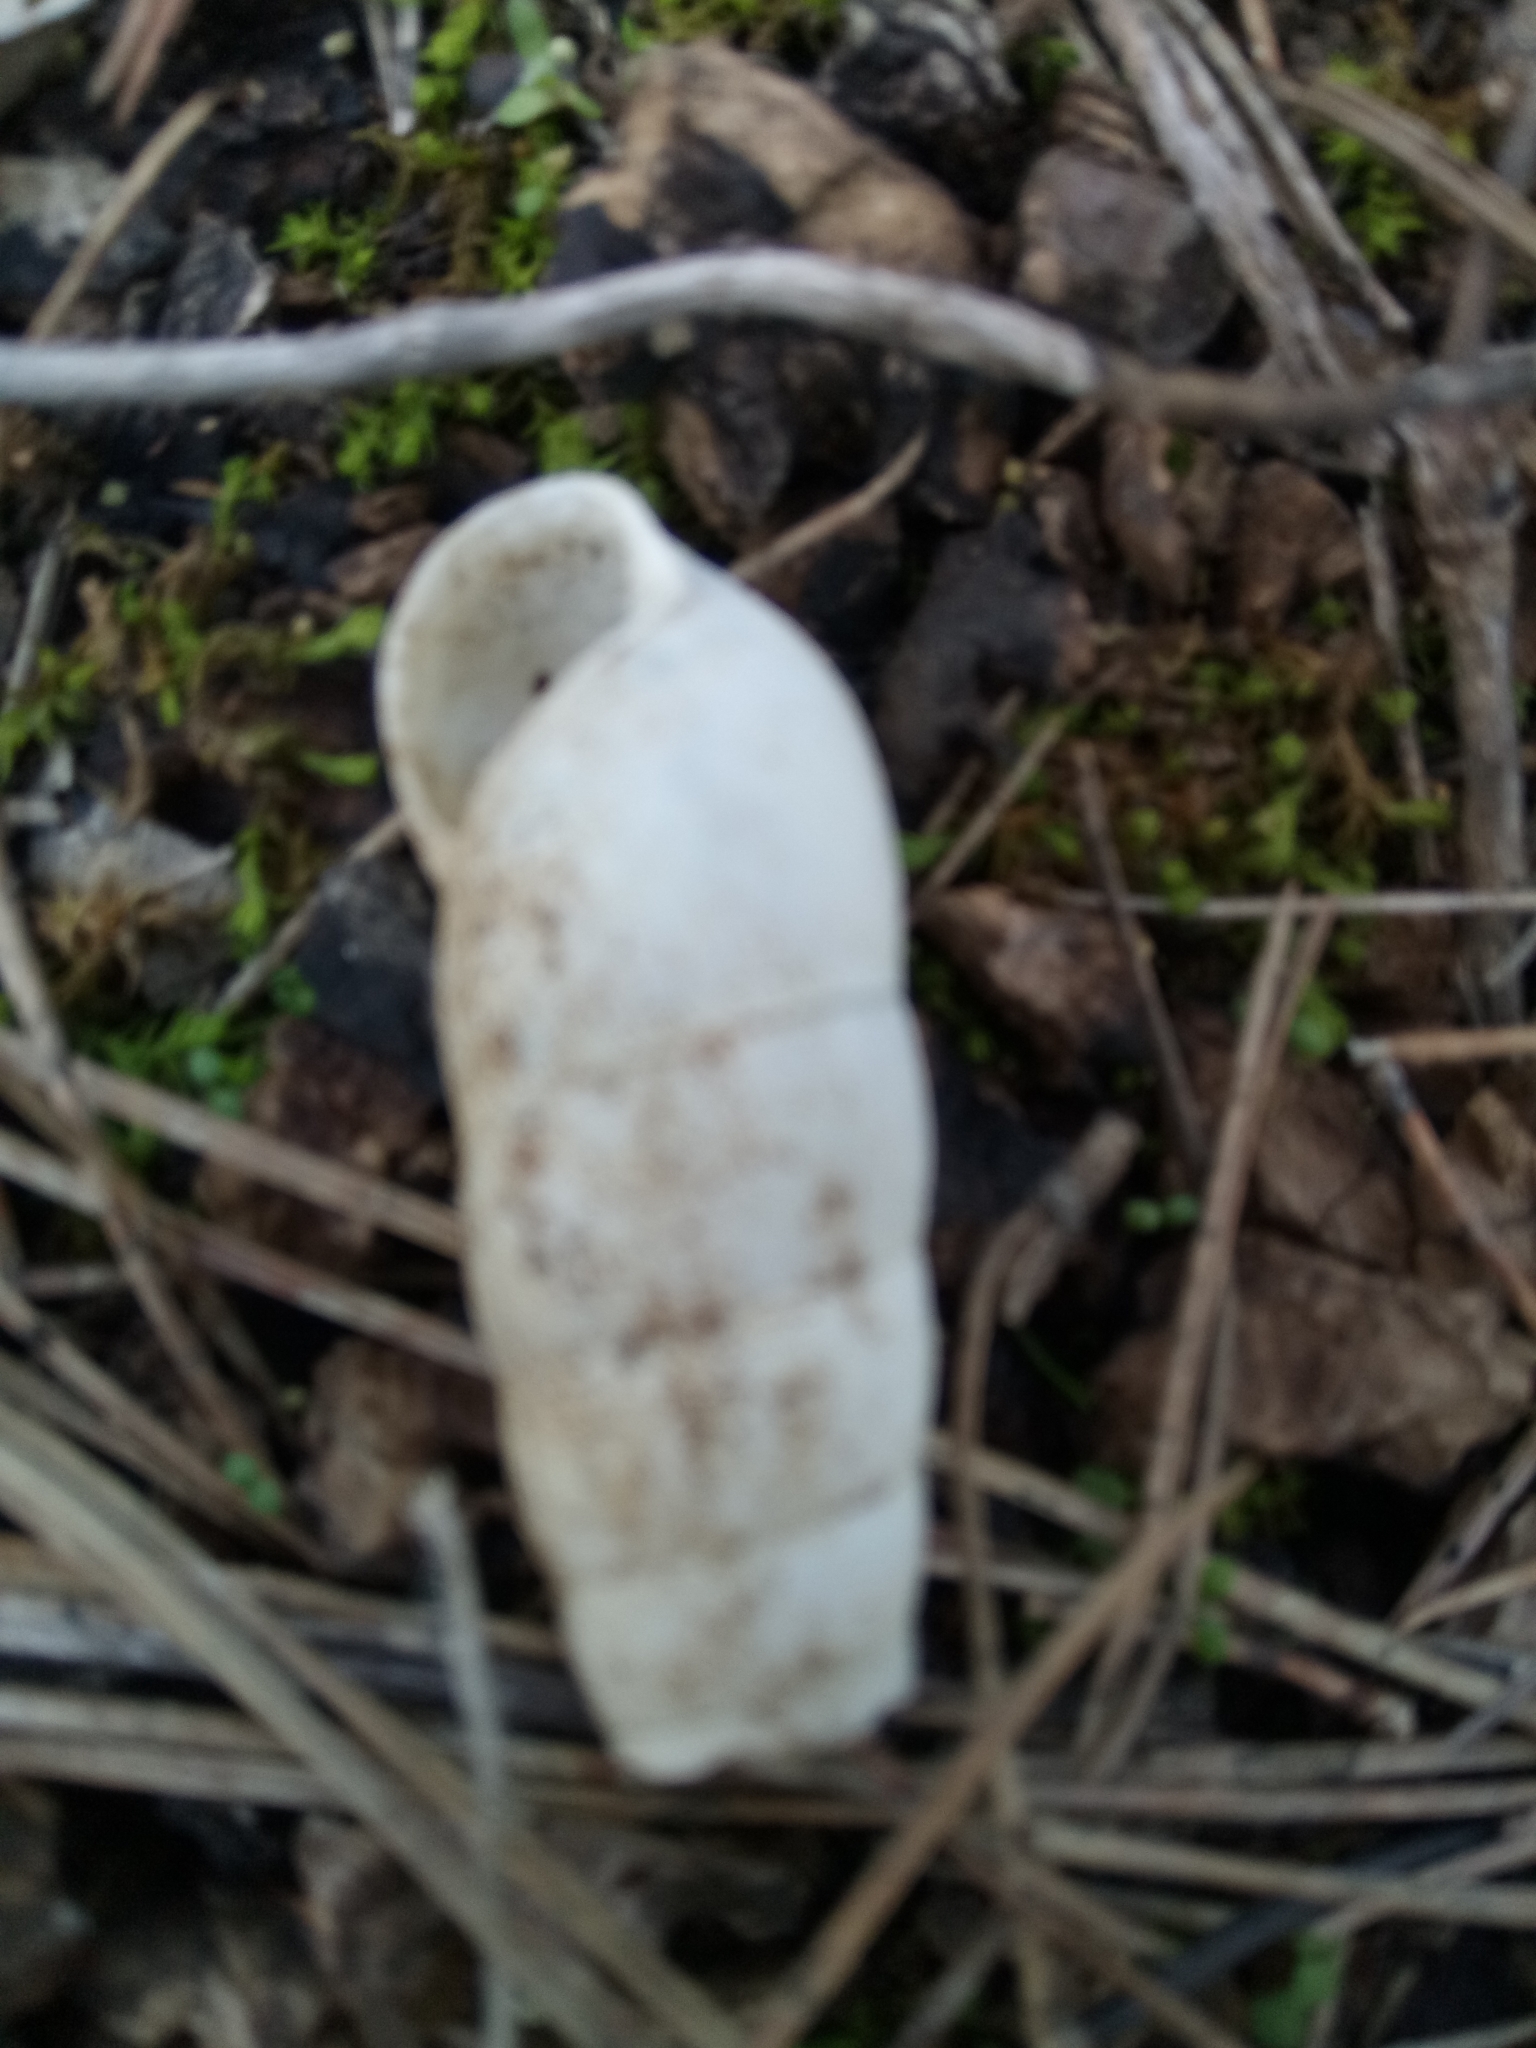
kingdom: Animalia
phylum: Mollusca
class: Gastropoda
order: Stylommatophora
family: Achatinidae
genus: Rumina
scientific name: Rumina decollata
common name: Decollate snail
